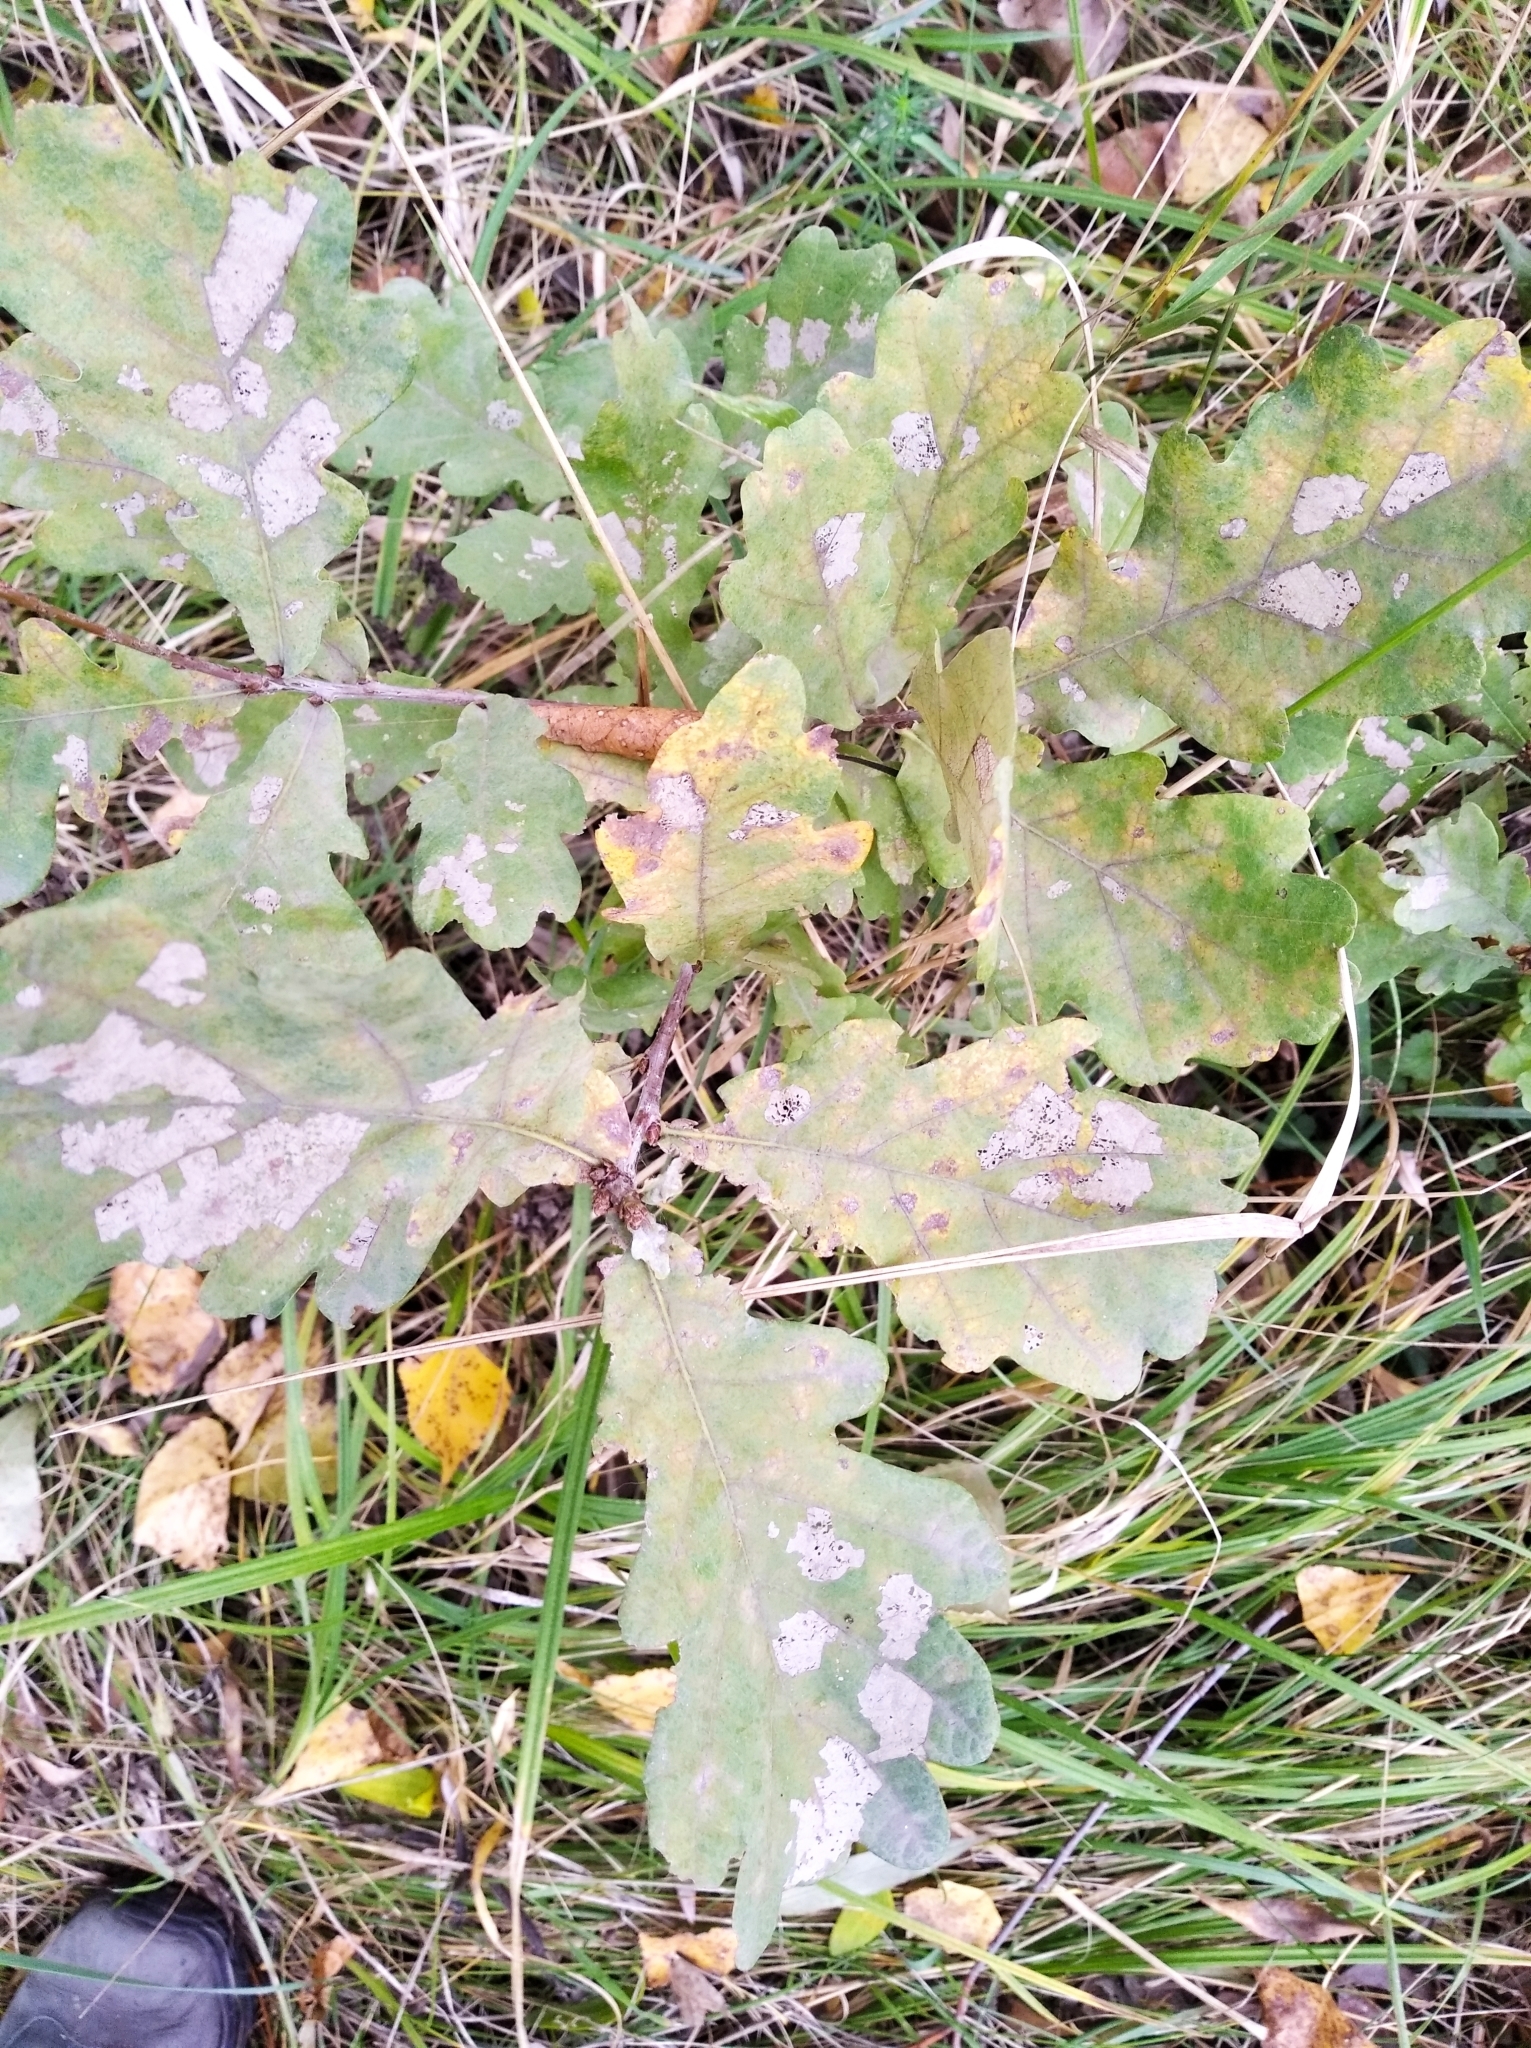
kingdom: Plantae
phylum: Tracheophyta
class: Magnoliopsida
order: Fagales
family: Fagaceae
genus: Quercus
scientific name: Quercus robur
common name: Pedunculate oak
